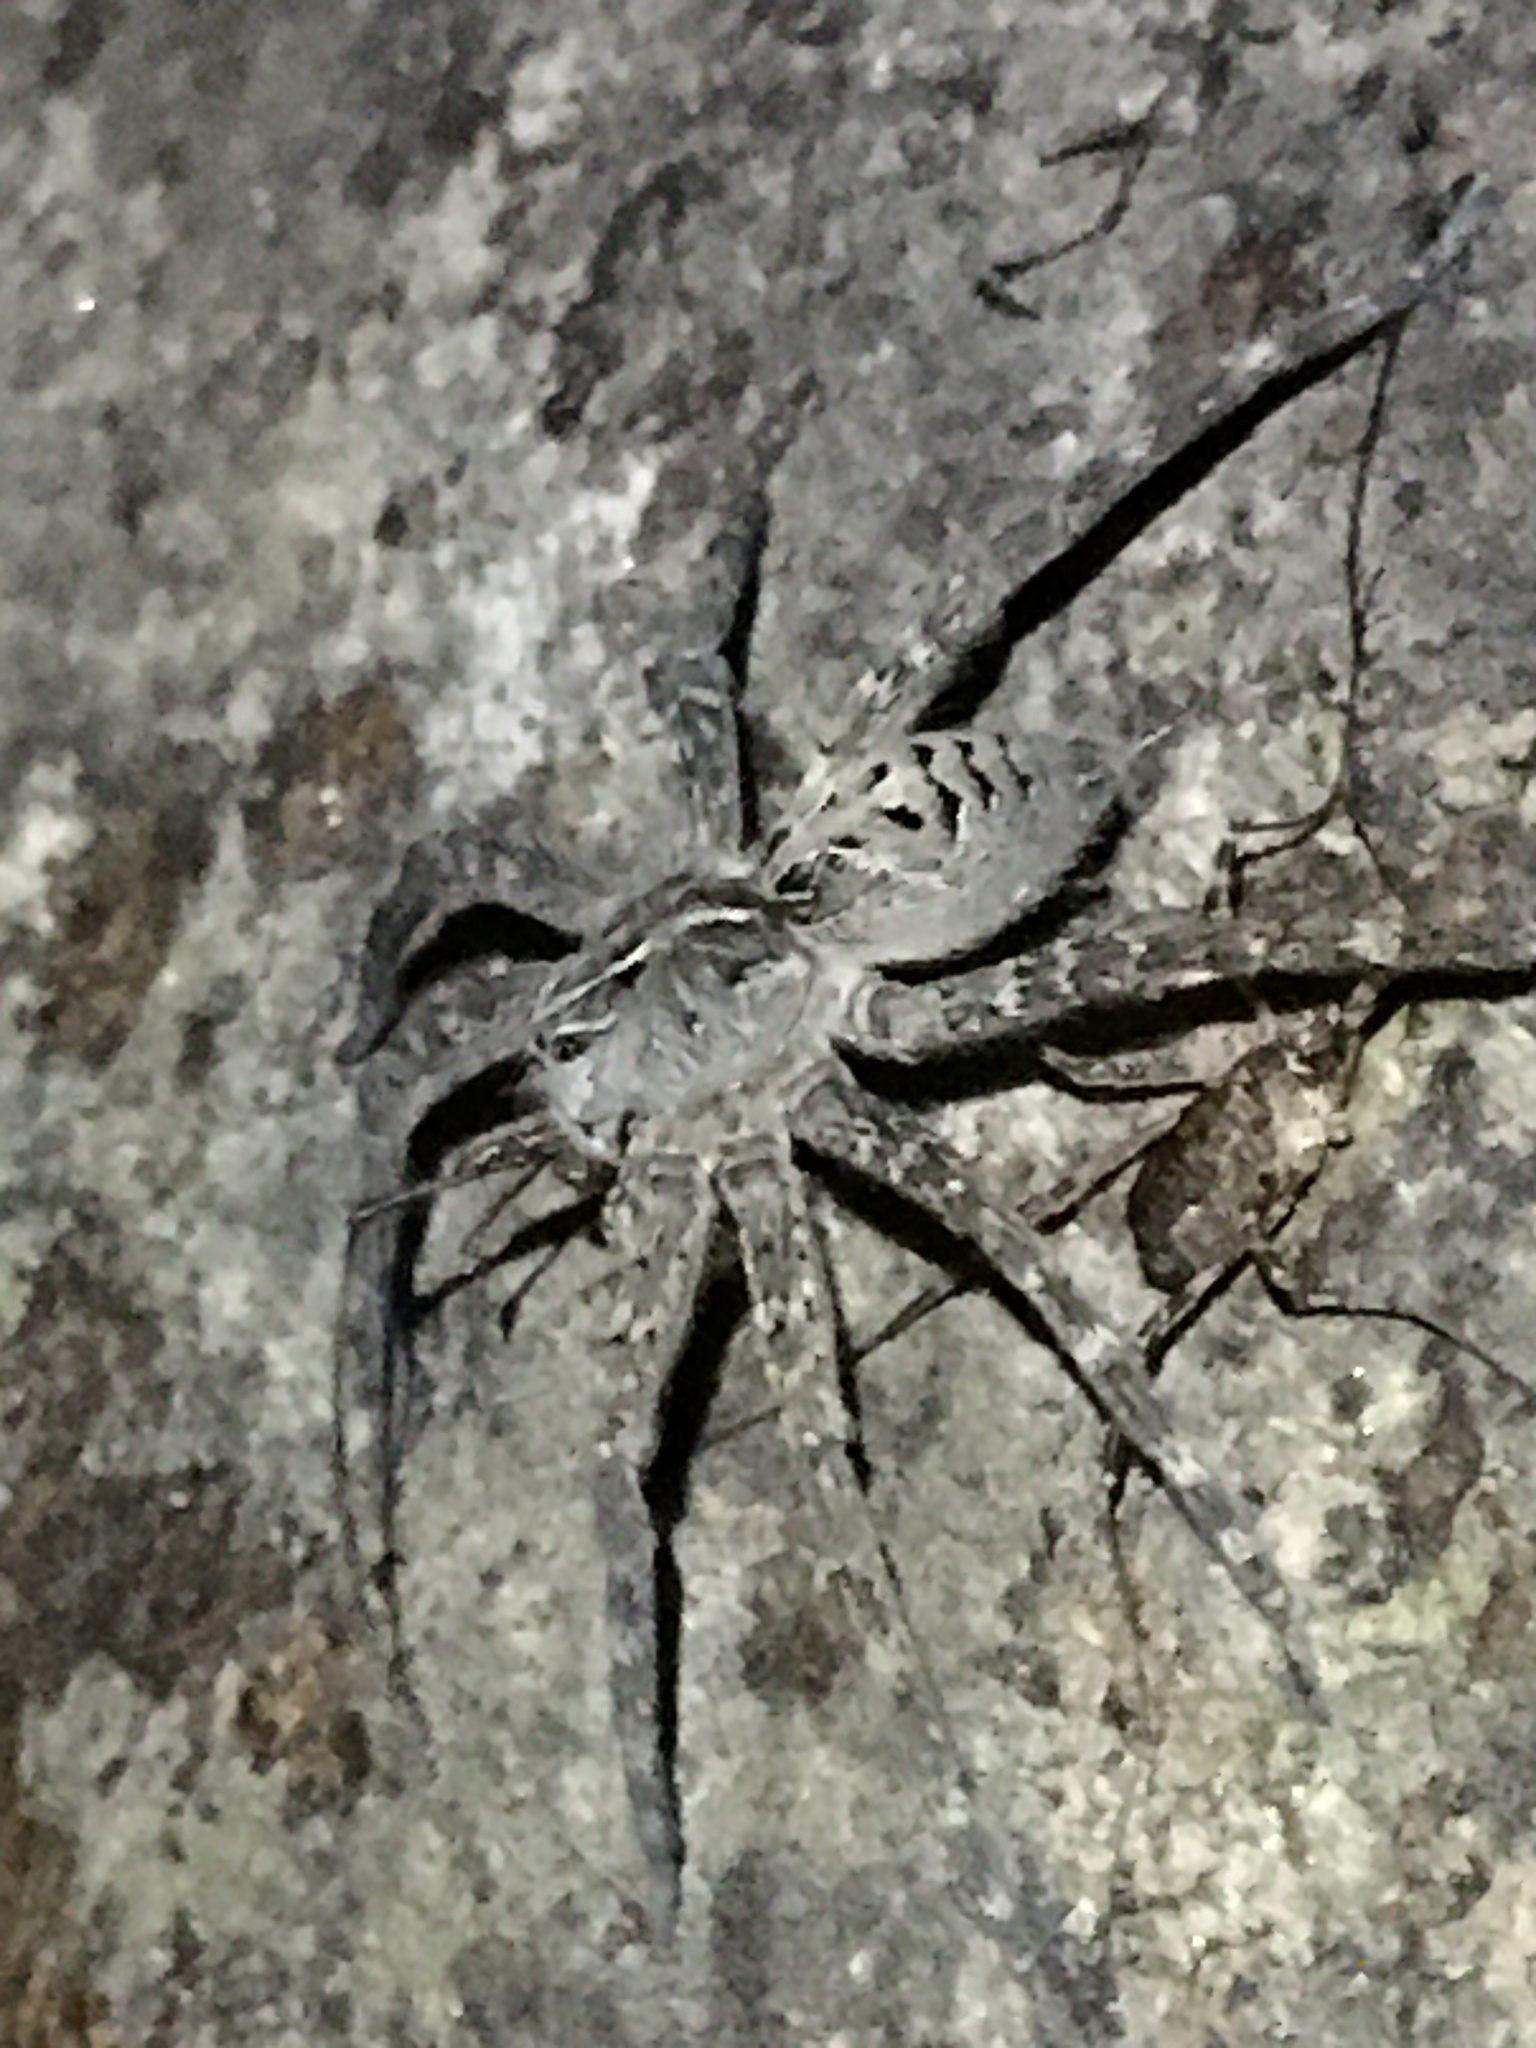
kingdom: Animalia
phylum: Arthropoda
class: Arachnida
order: Araneae
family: Pisauridae
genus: Dolomedes
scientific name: Dolomedes scriptus
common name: Striped fishing spider
